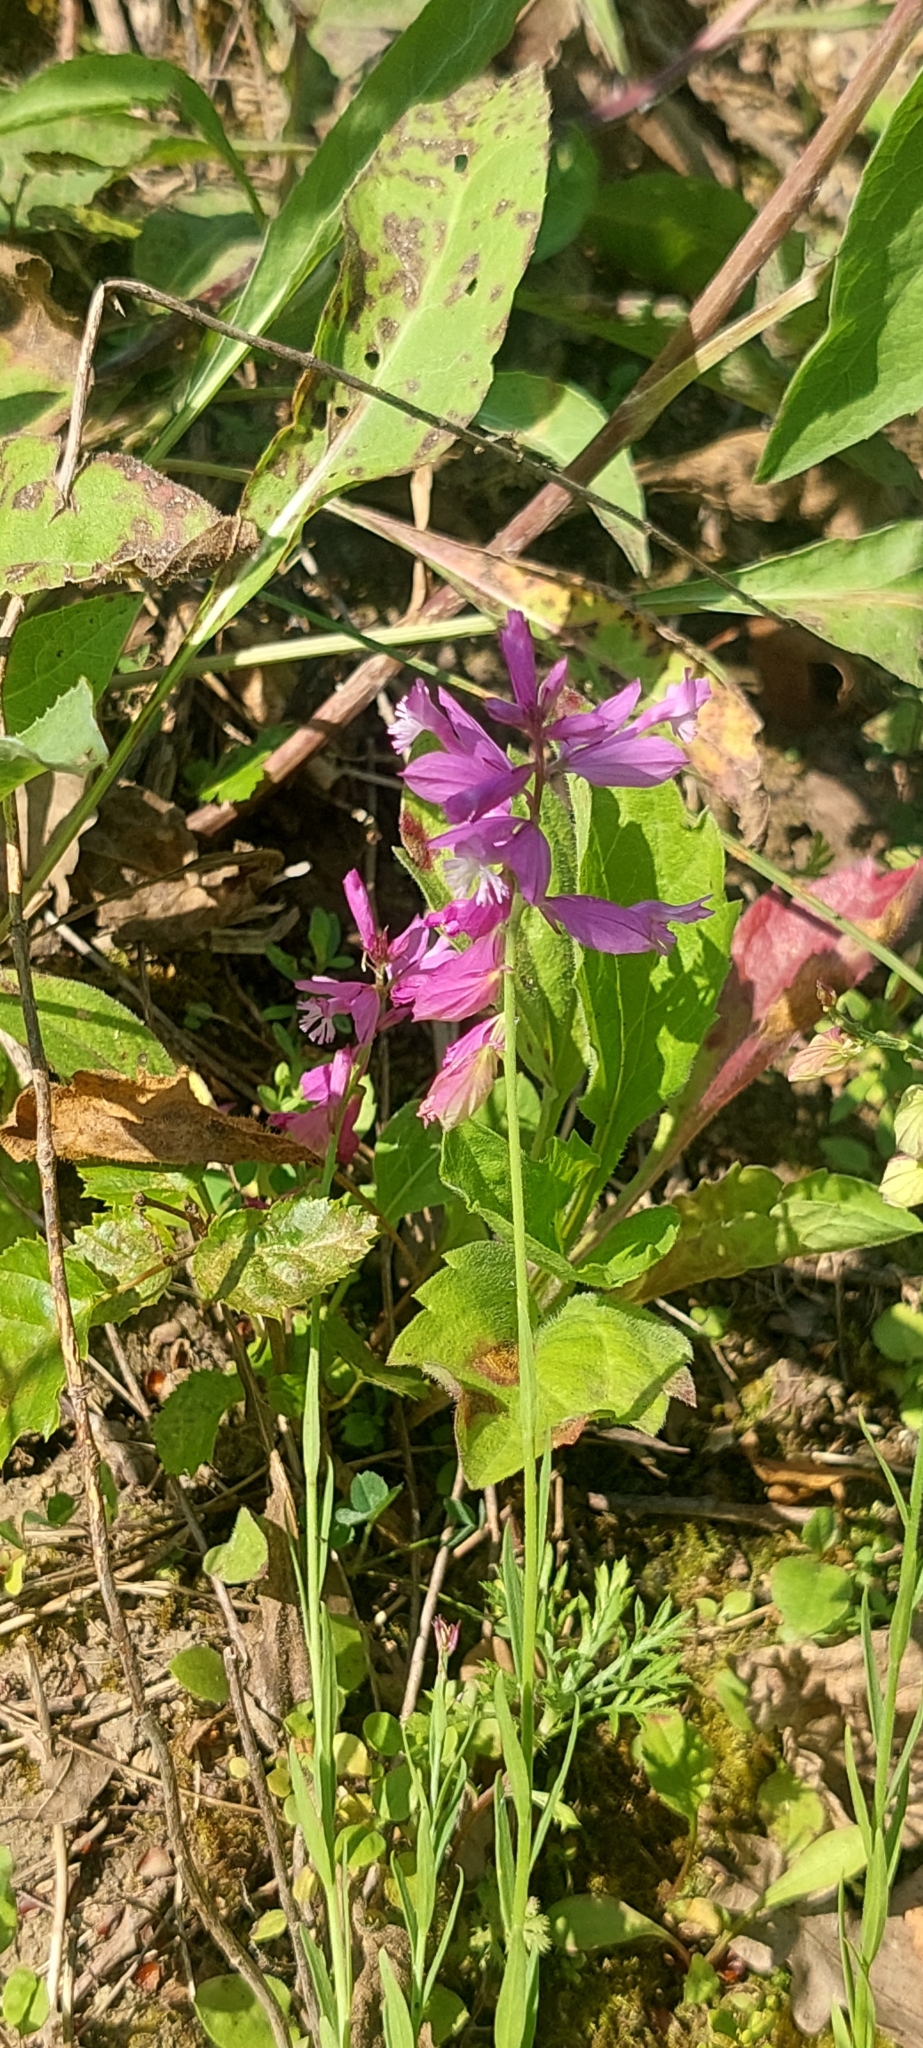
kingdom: Plantae
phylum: Tracheophyta
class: Magnoliopsida
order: Fabales
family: Polygalaceae
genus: Polygala
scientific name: Polygala major
